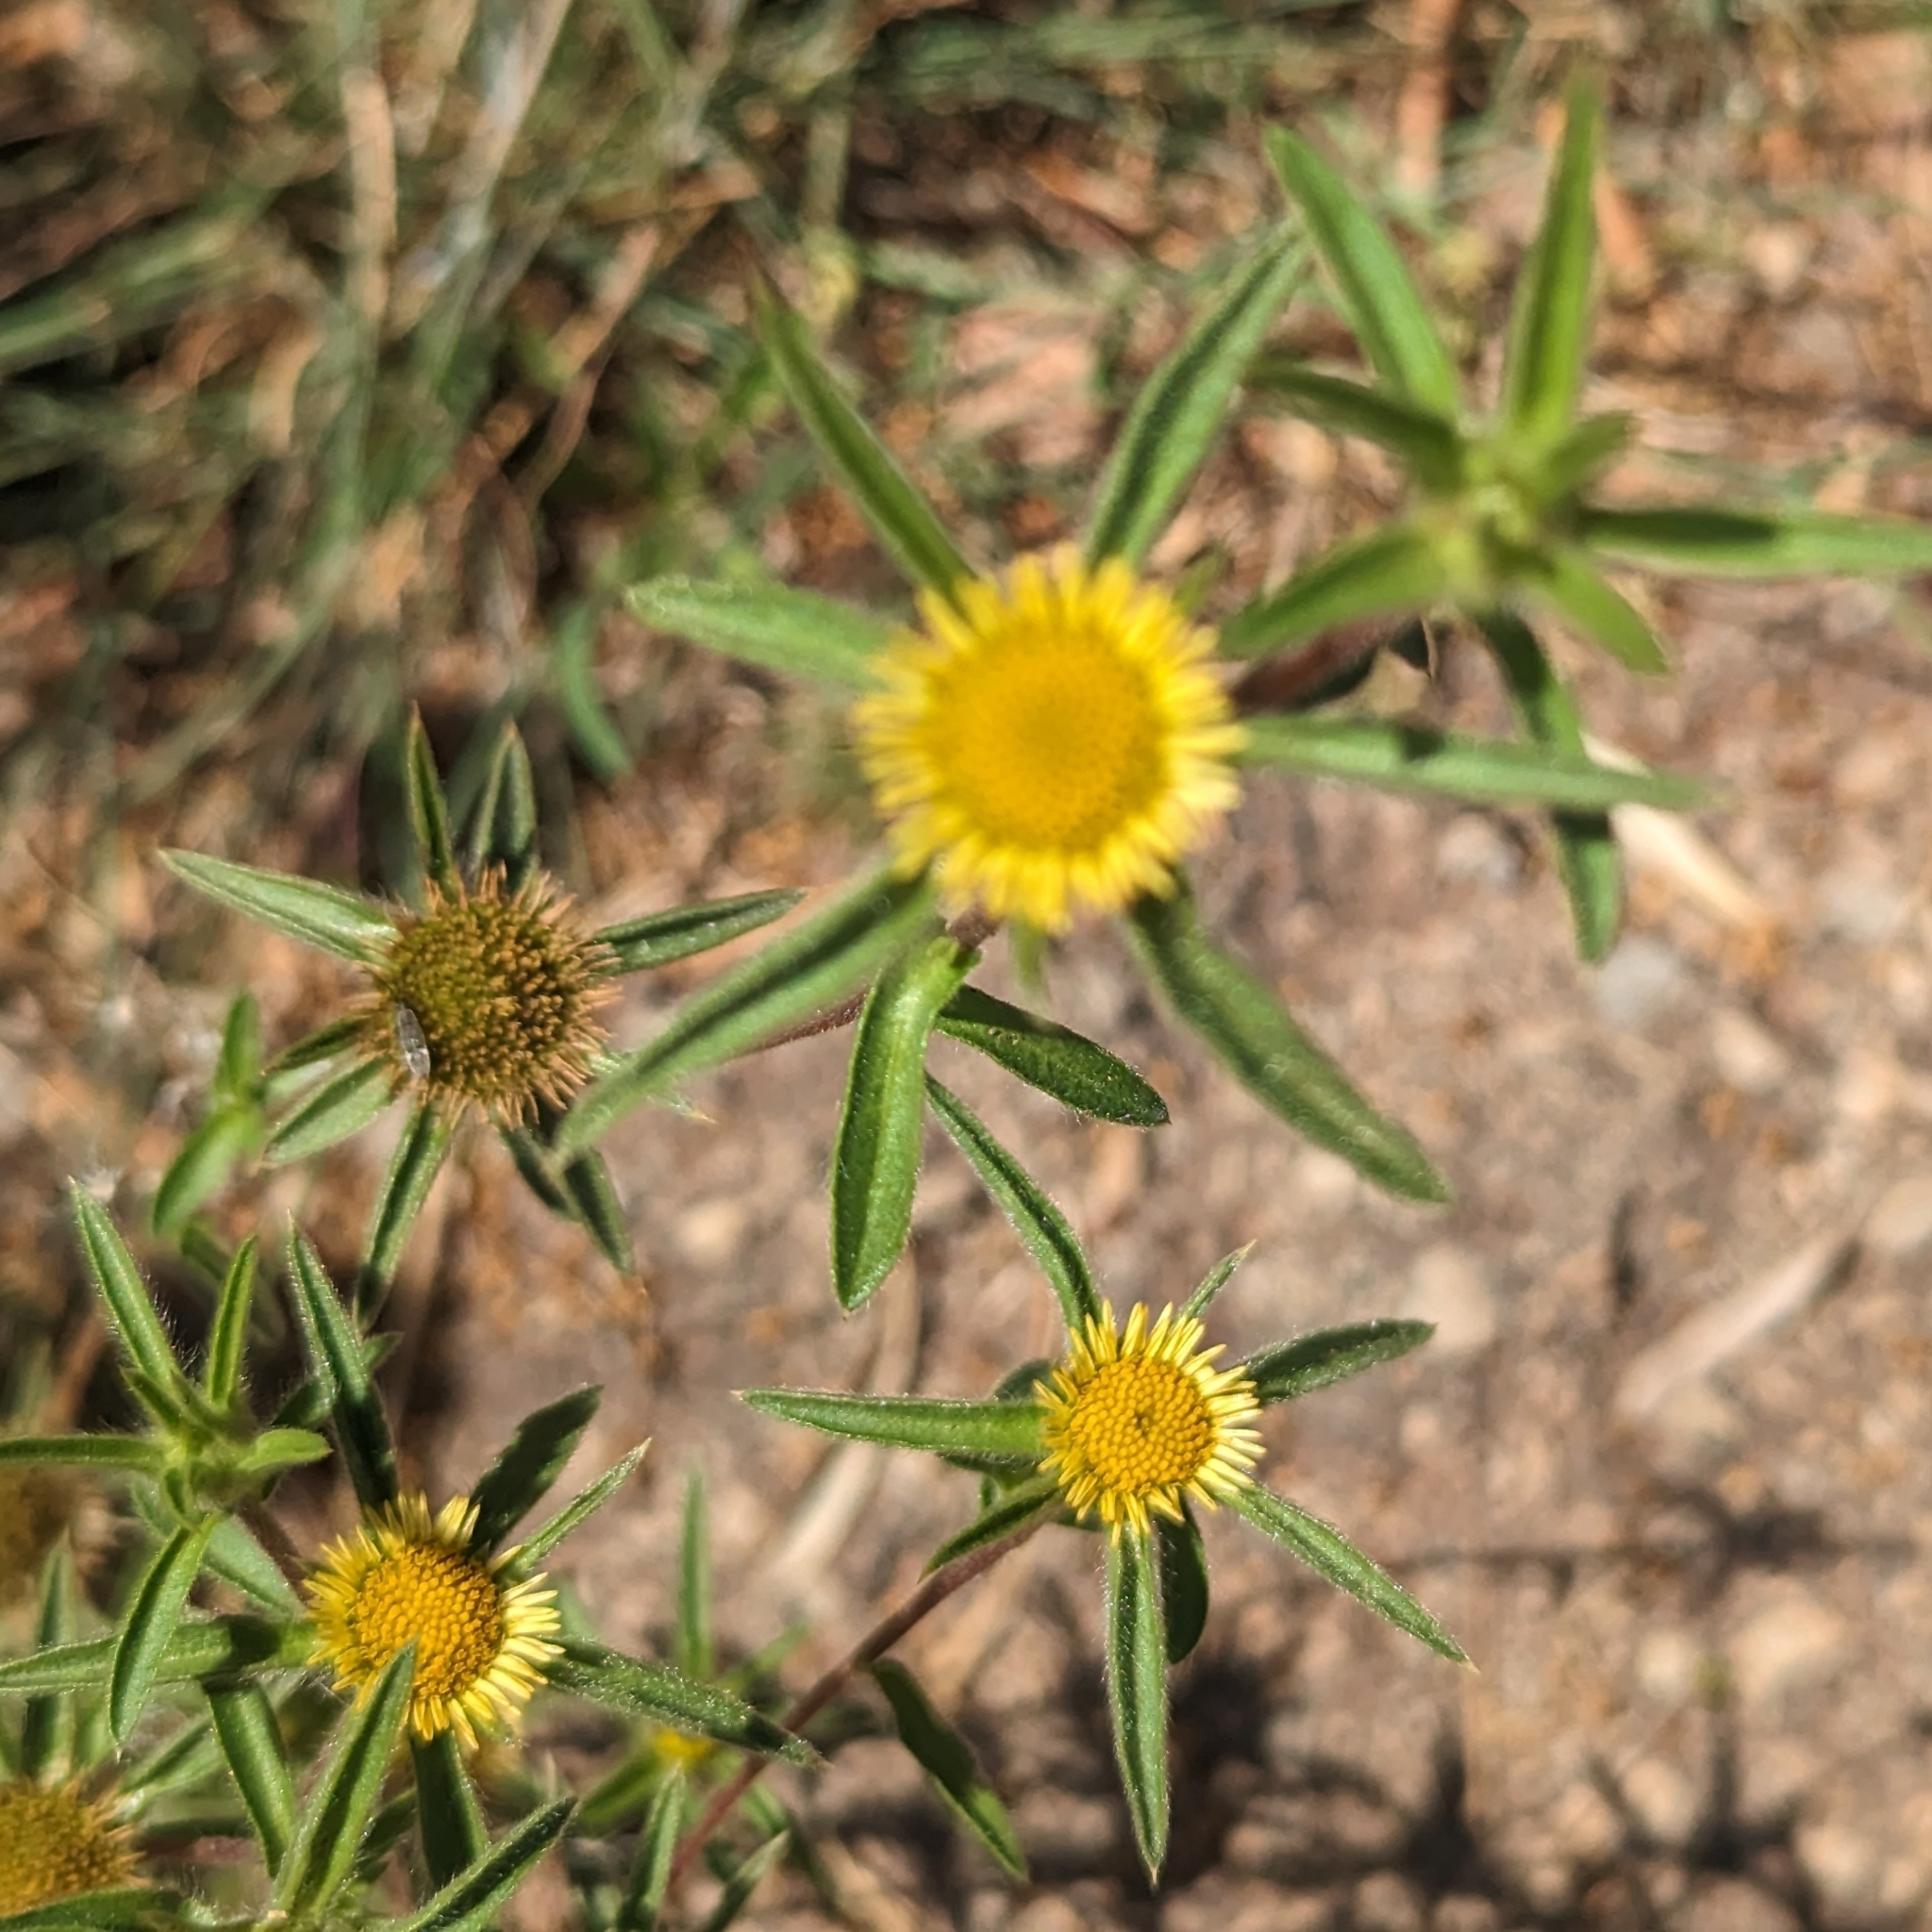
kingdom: Plantae
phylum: Tracheophyta
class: Magnoliopsida
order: Asterales
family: Asteraceae
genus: Pallenis
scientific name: Pallenis spinosa
